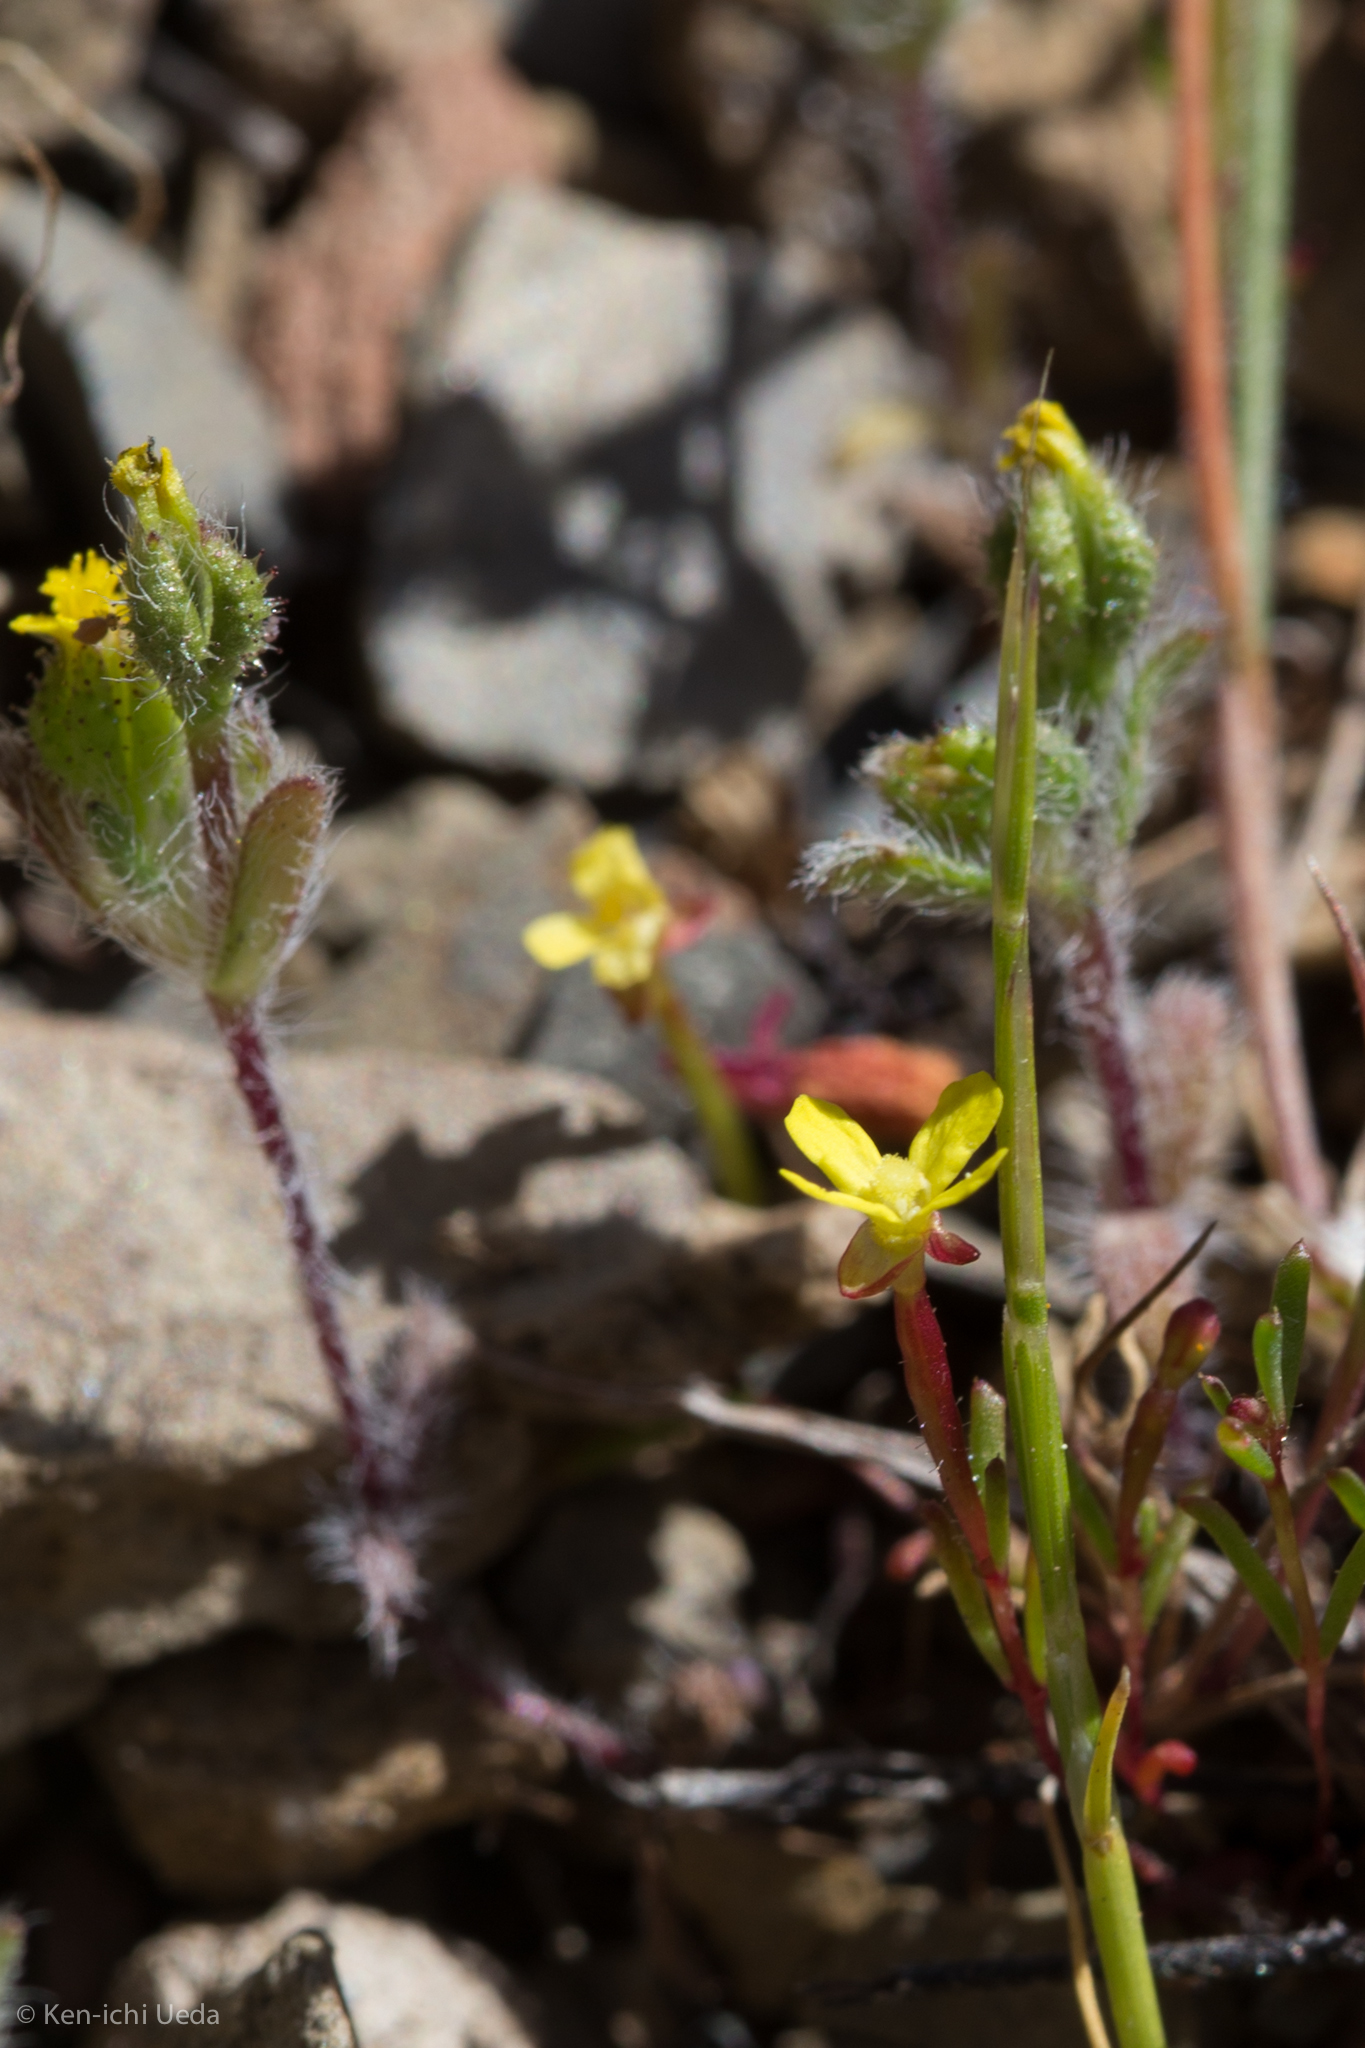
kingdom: Plantae
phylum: Tracheophyta
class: Magnoliopsida
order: Asterales
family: Asteraceae
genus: Hemizonella
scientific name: Hemizonella minima
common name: Opposite-leaved tarweed
